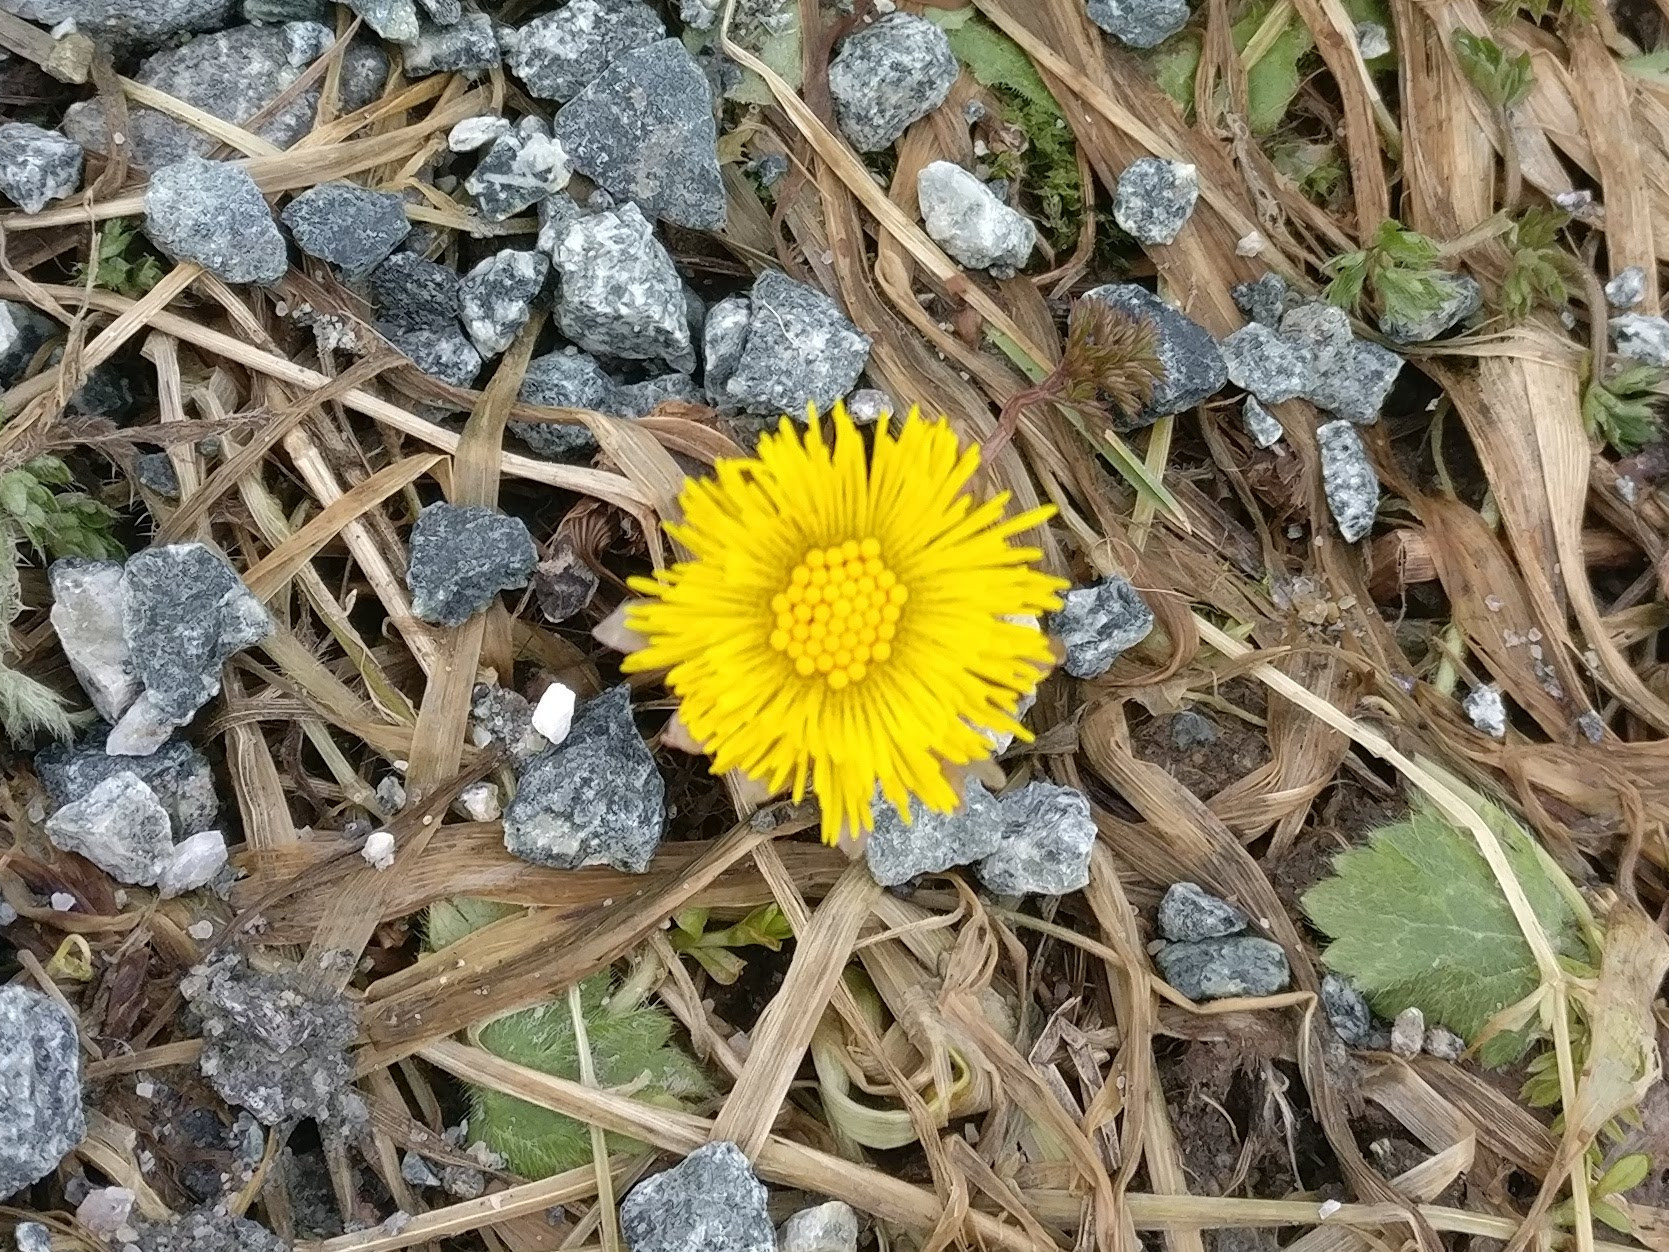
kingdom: Plantae
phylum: Tracheophyta
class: Magnoliopsida
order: Asterales
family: Asteraceae
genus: Tussilago
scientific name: Tussilago farfara
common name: Coltsfoot
